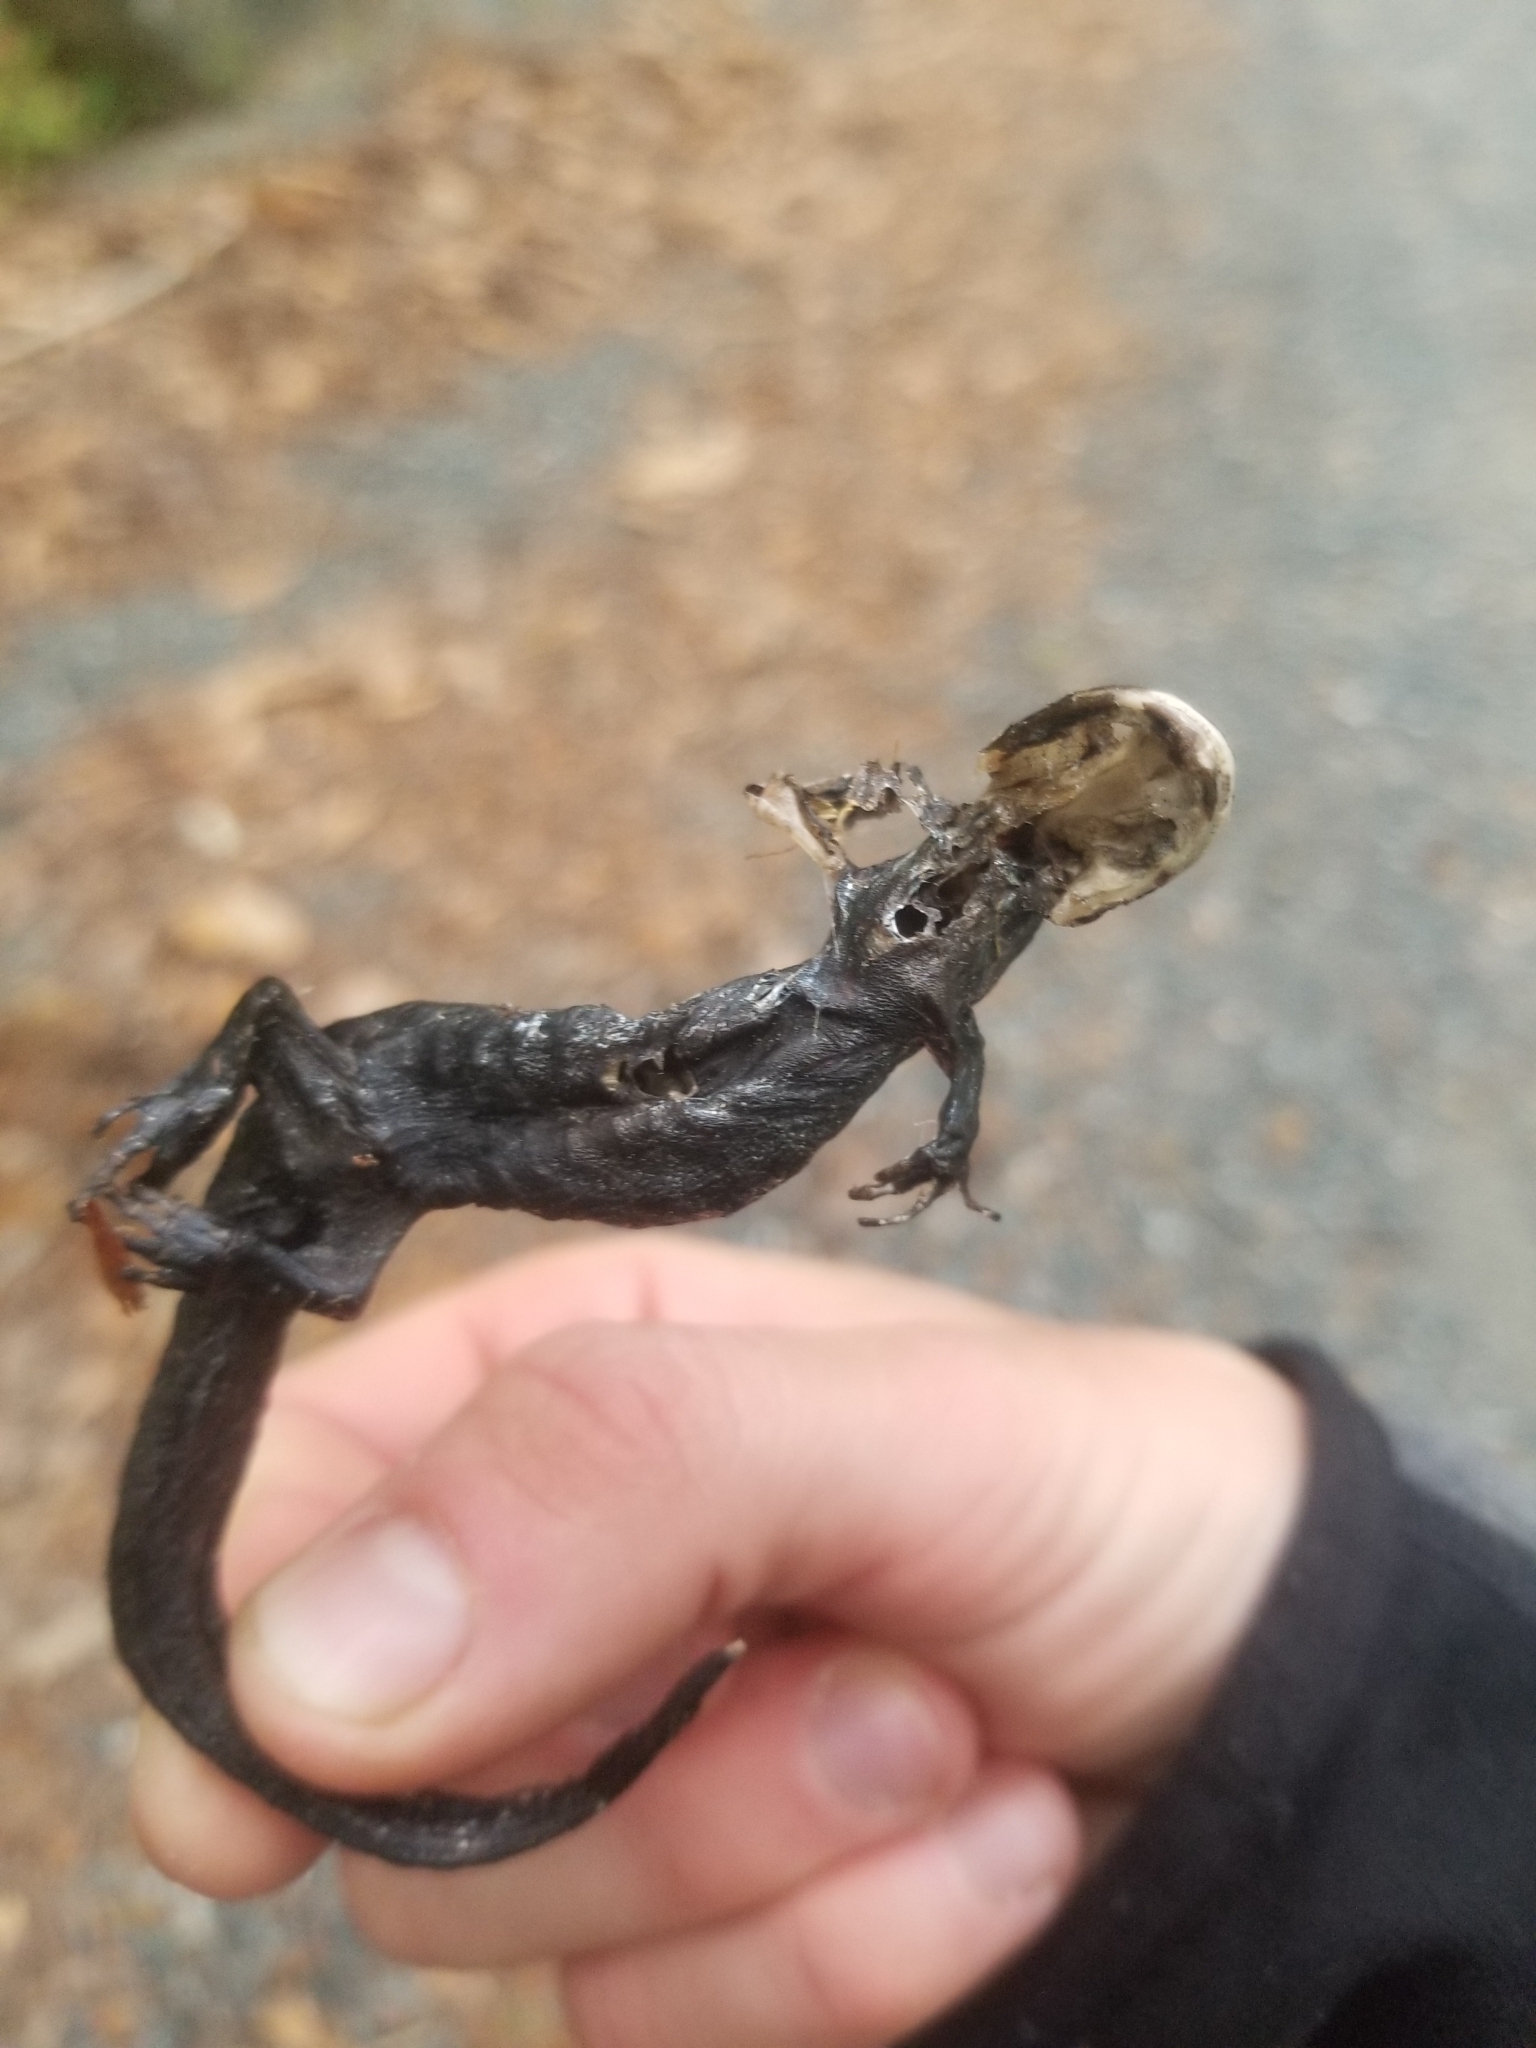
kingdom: Animalia
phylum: Chordata
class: Amphibia
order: Caudata
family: Ambystomatidae
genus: Ambystoma
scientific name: Ambystoma maculatum
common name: Spotted salamander
